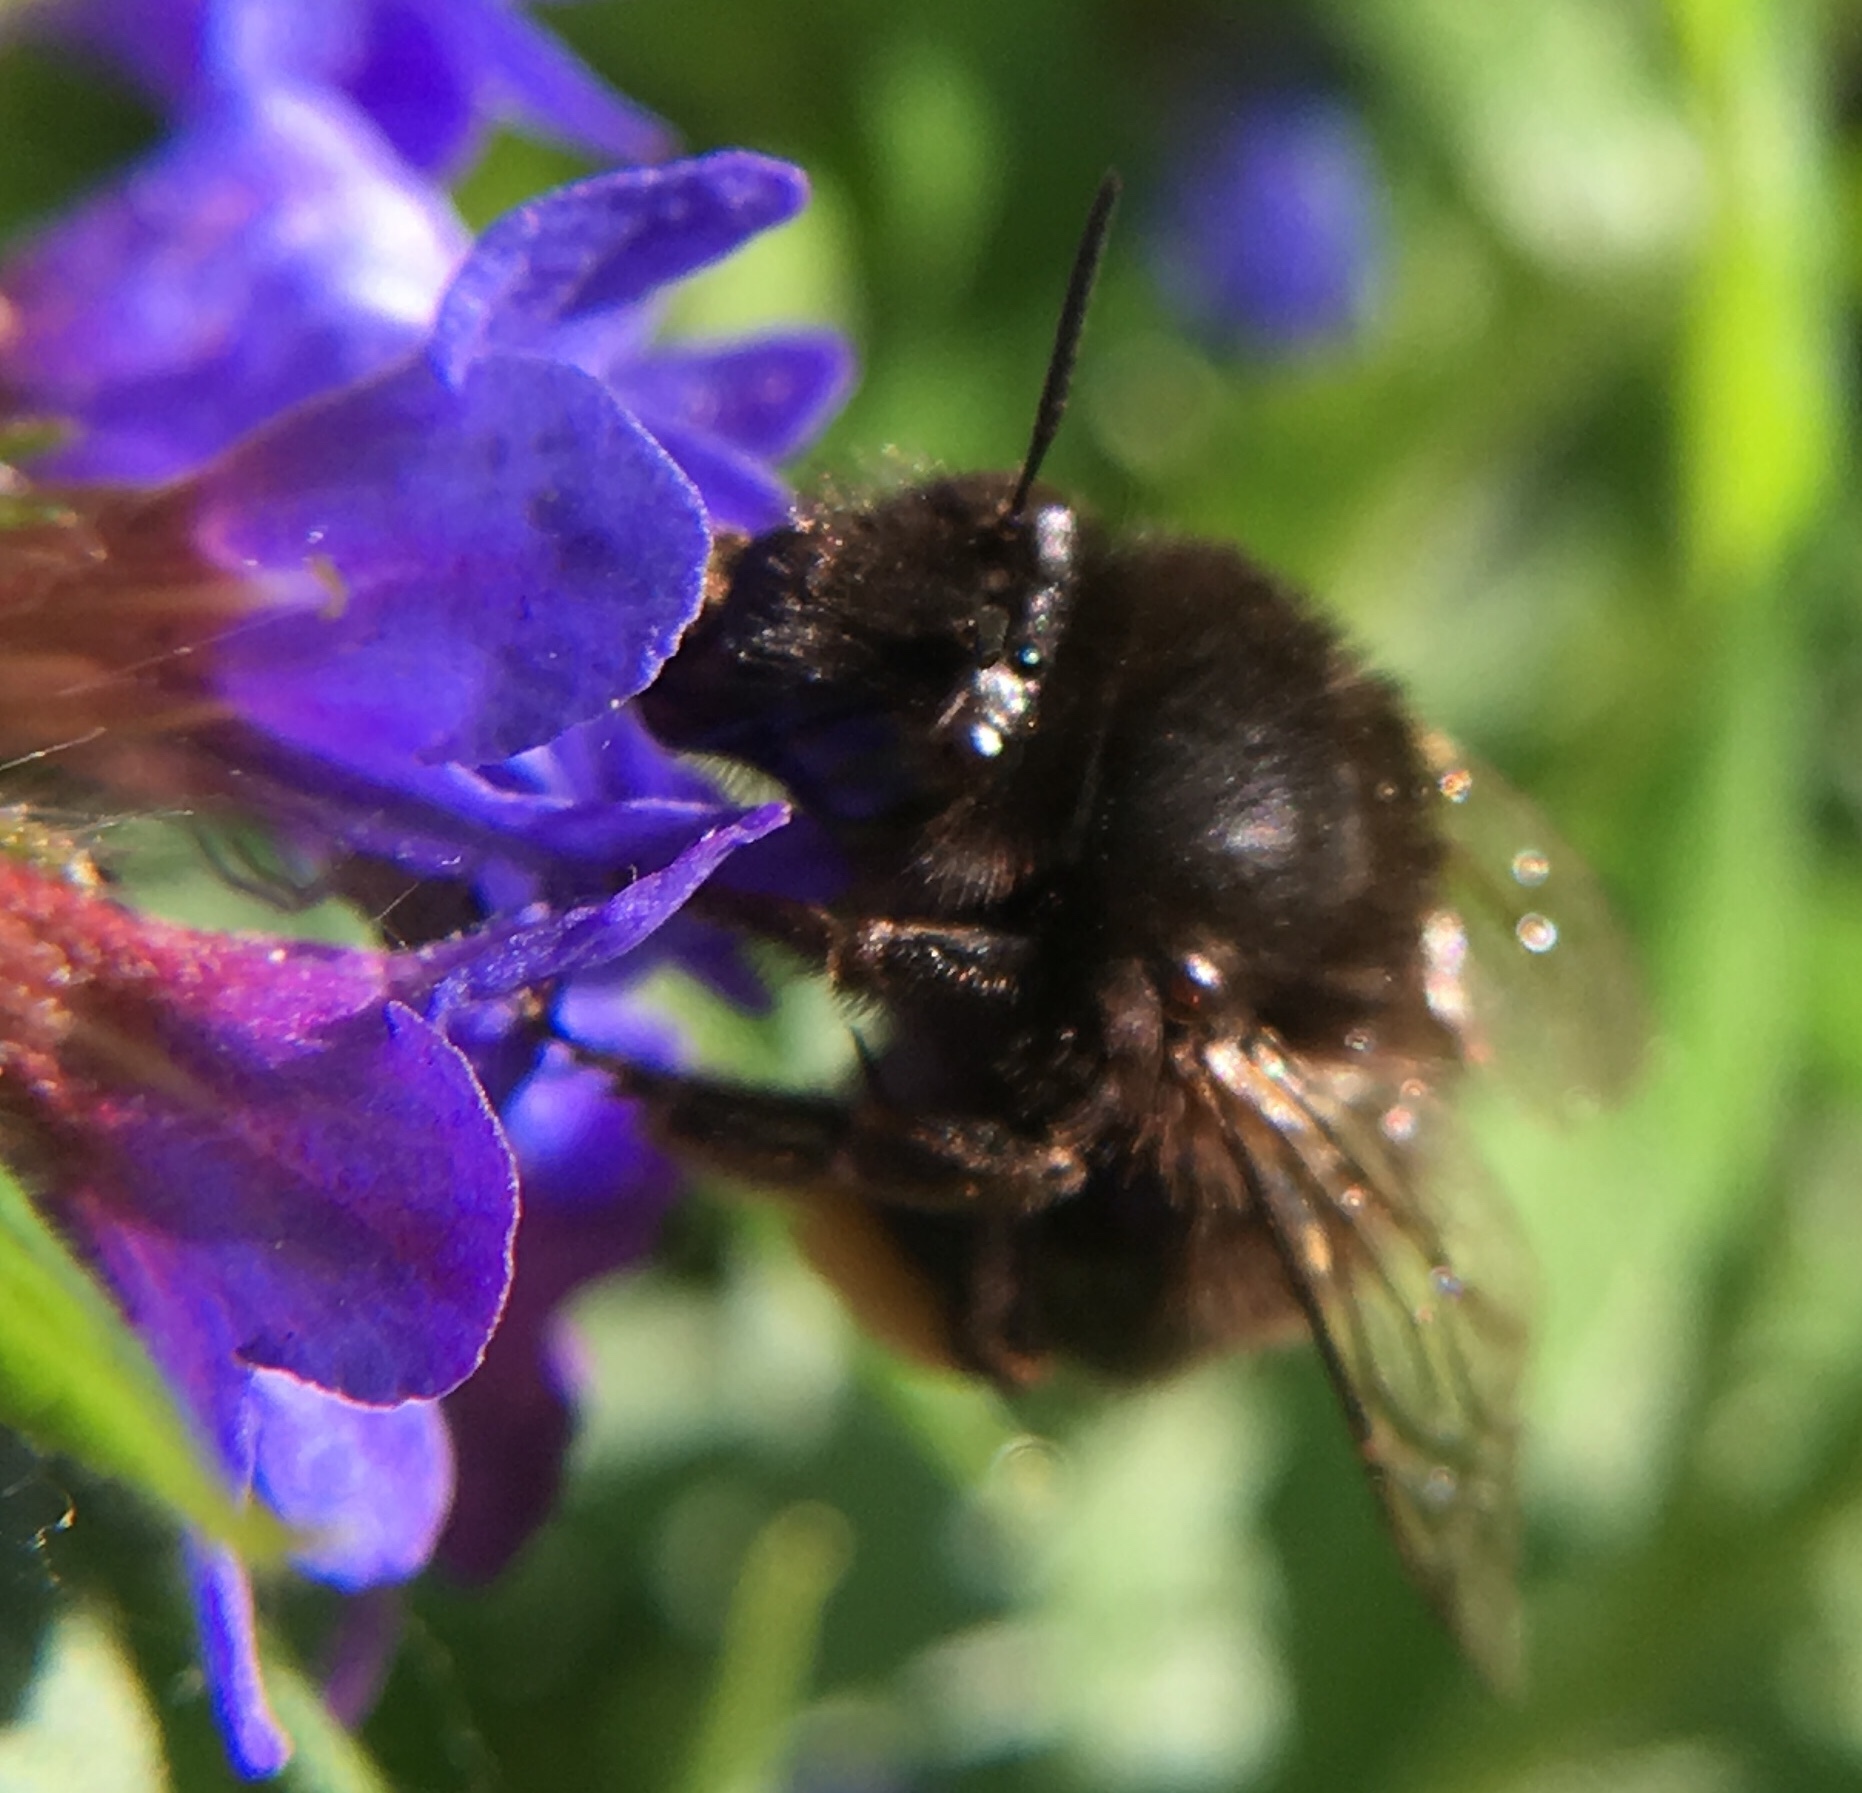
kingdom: Animalia
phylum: Arthropoda
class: Insecta
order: Hymenoptera
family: Apidae
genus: Anthophora
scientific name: Anthophora plumipes
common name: Hairy-footed flower bee
